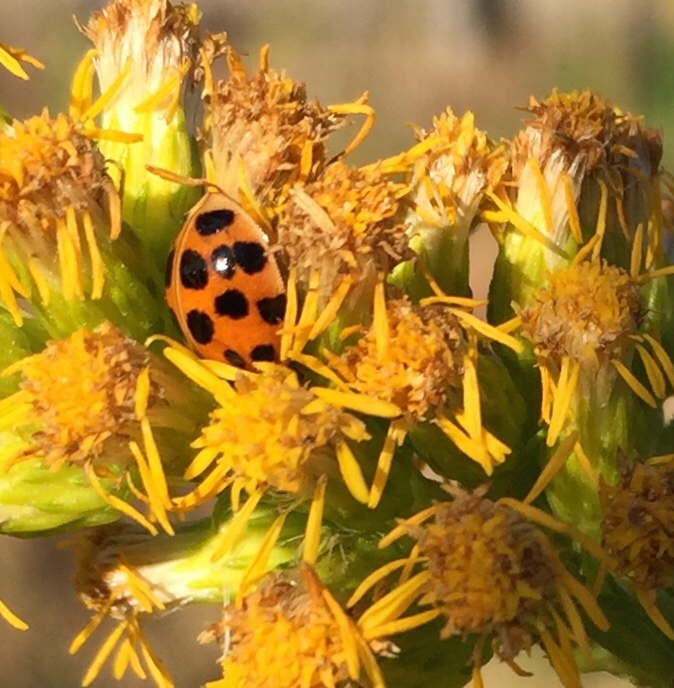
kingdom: Animalia
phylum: Arthropoda
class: Insecta
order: Coleoptera
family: Coccinellidae
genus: Harmonia
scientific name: Harmonia axyridis
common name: Harlequin ladybird
